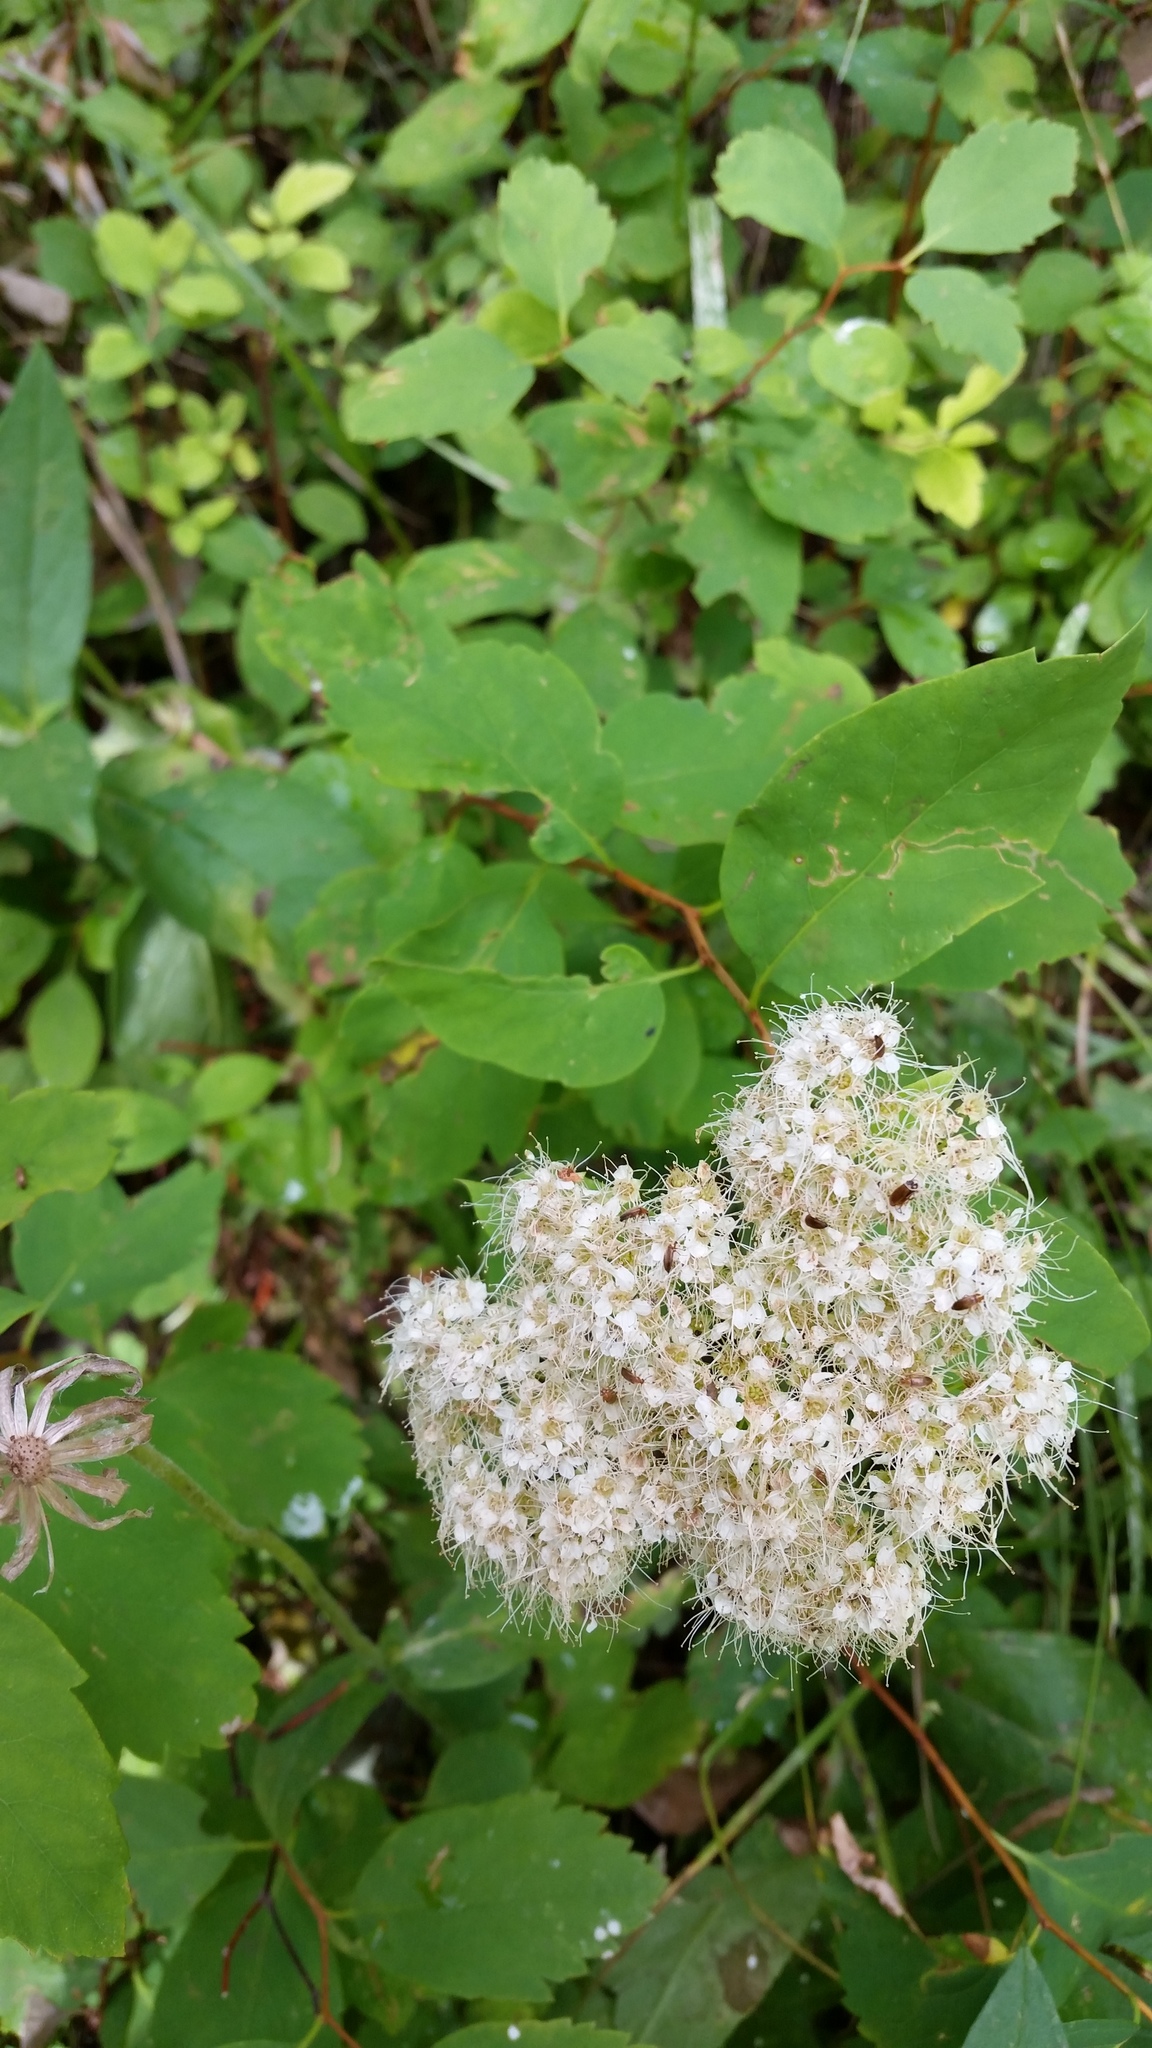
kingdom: Plantae
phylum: Tracheophyta
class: Magnoliopsida
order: Rosales
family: Rosaceae
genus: Spiraea
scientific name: Spiraea lucida
